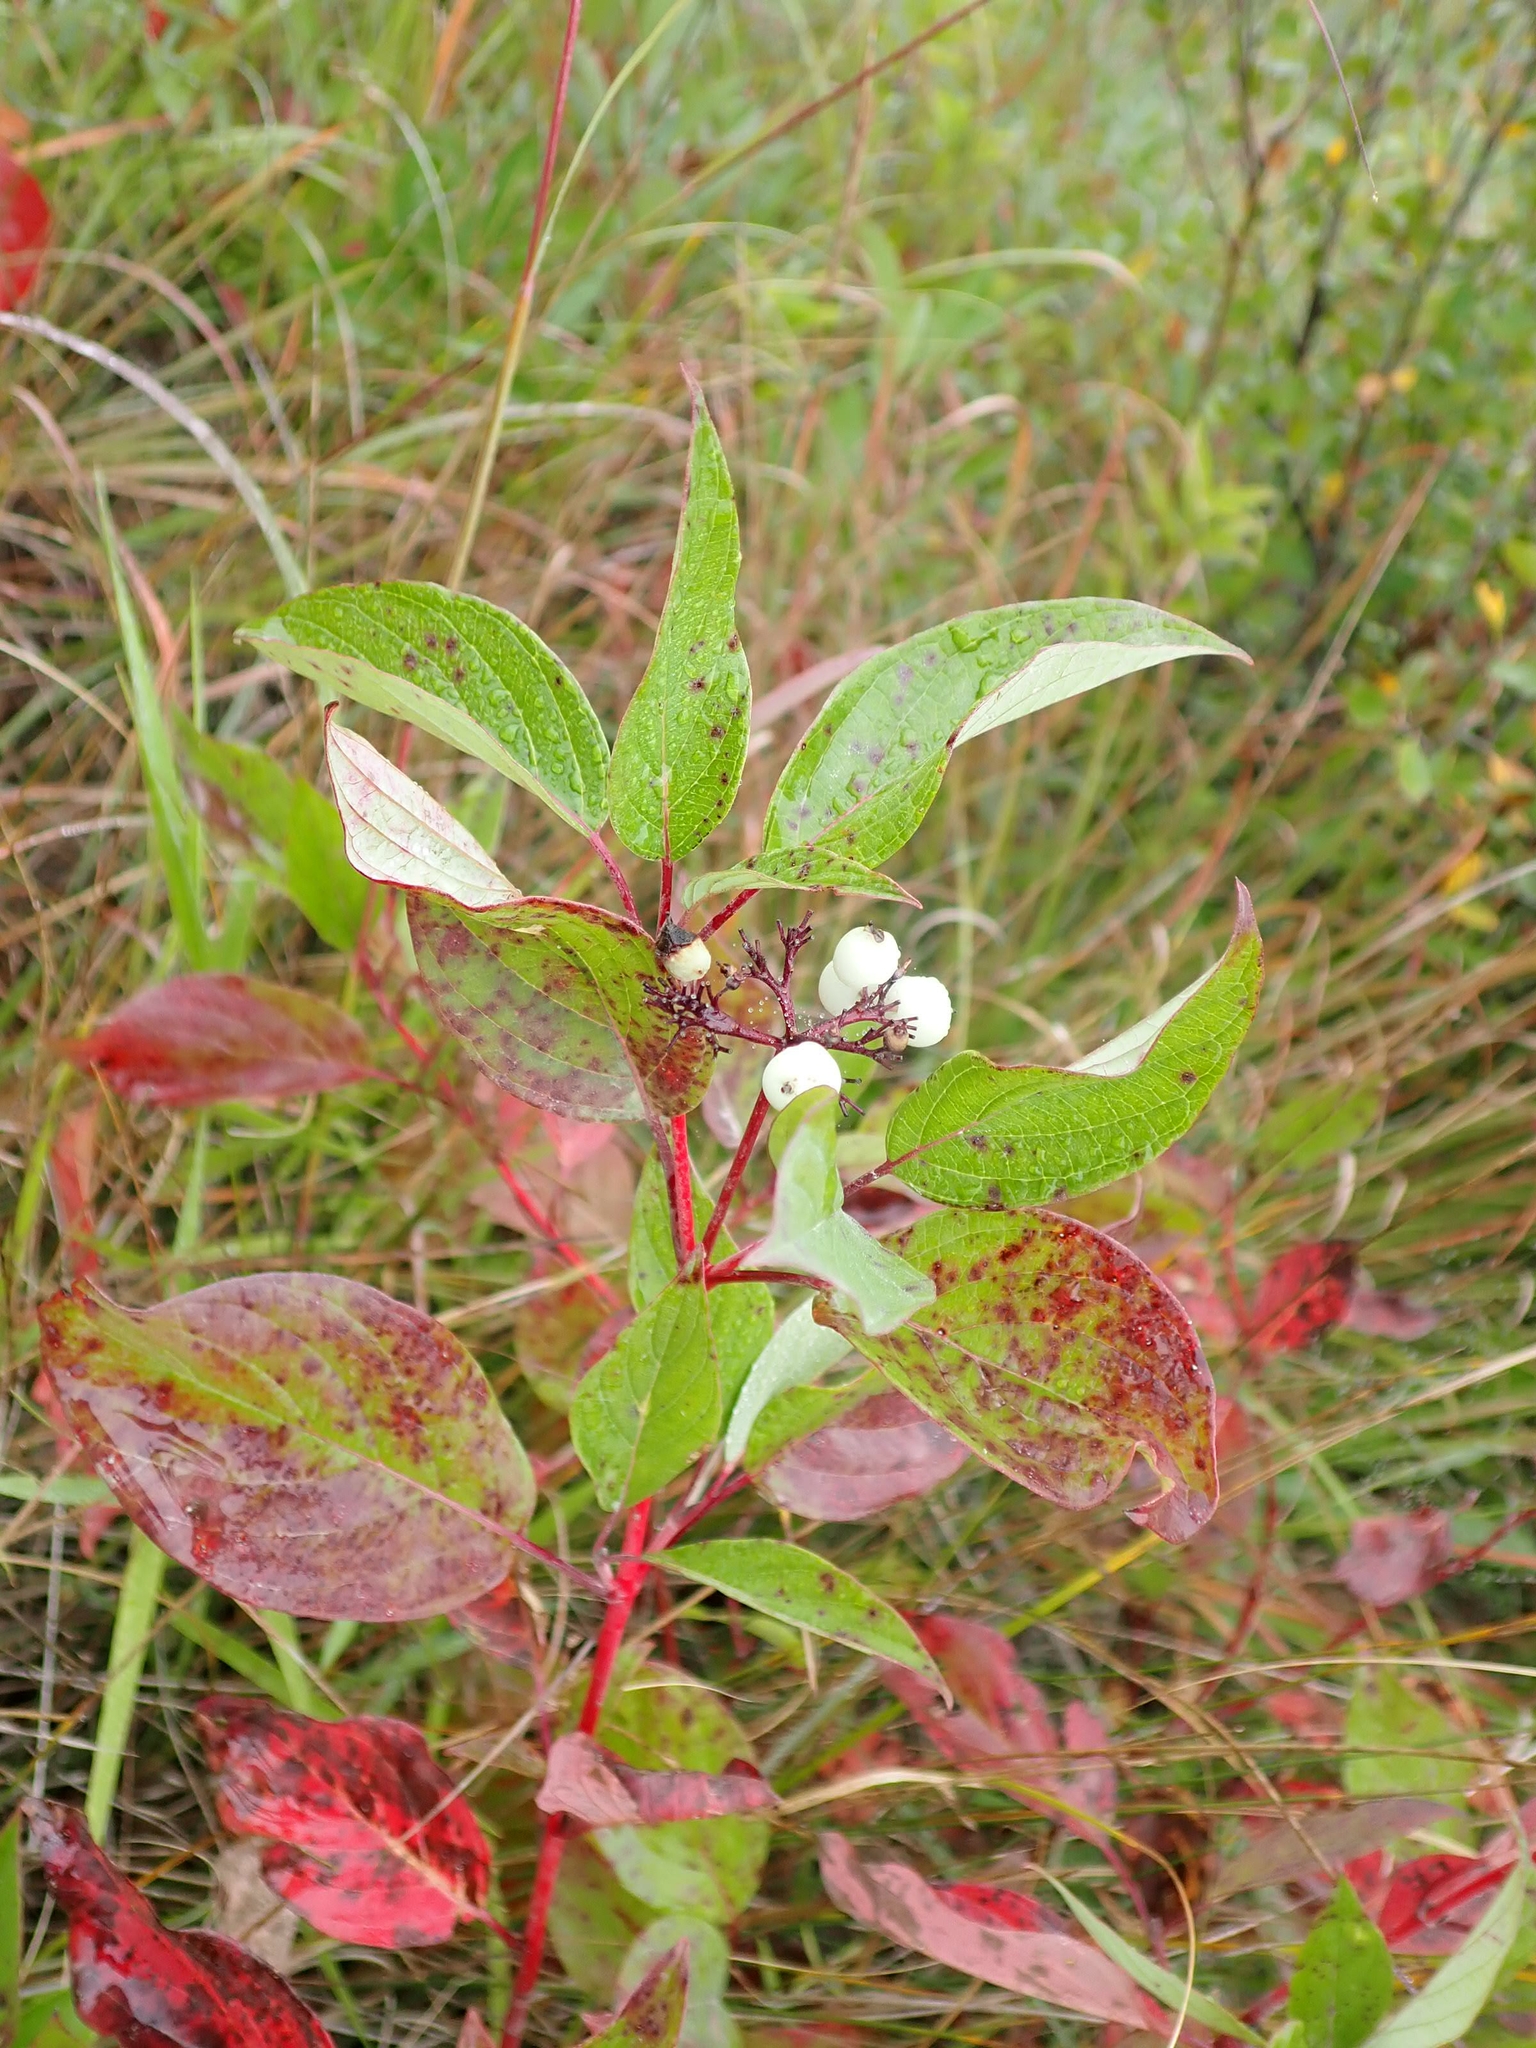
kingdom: Plantae
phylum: Tracheophyta
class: Magnoliopsida
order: Cornales
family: Cornaceae
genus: Cornus
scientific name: Cornus sericea
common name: Red-osier dogwood
